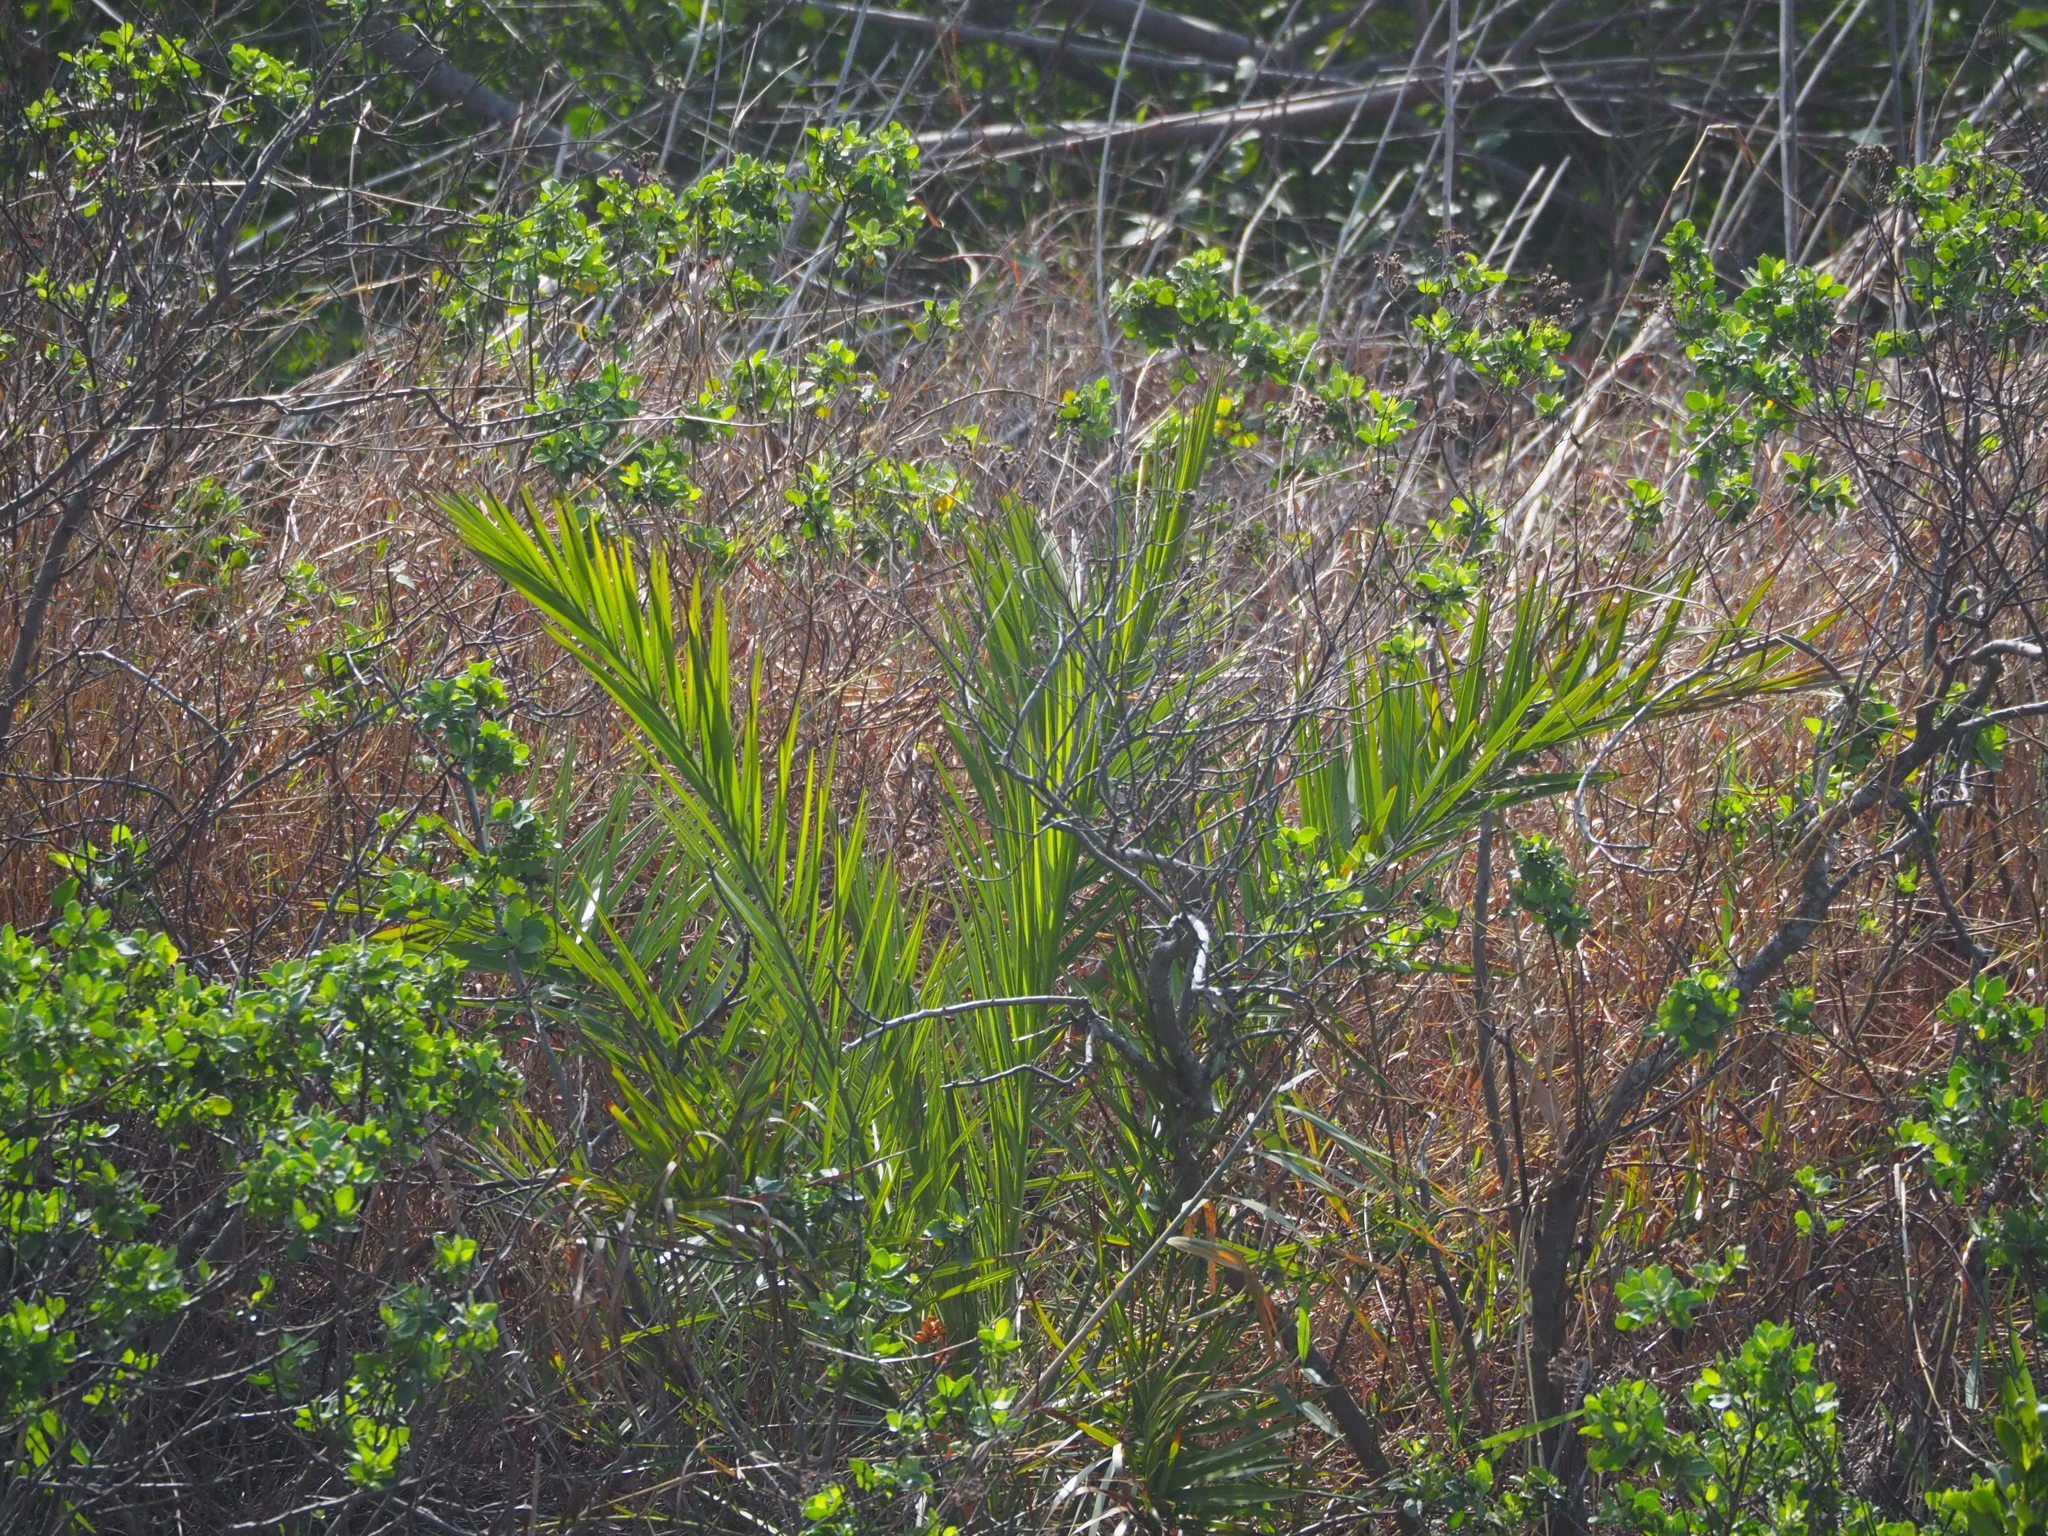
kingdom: Plantae
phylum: Tracheophyta
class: Liliopsida
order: Arecales
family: Arecaceae
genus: Phoenix
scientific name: Phoenix loureiroi
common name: Loureiro's palm
